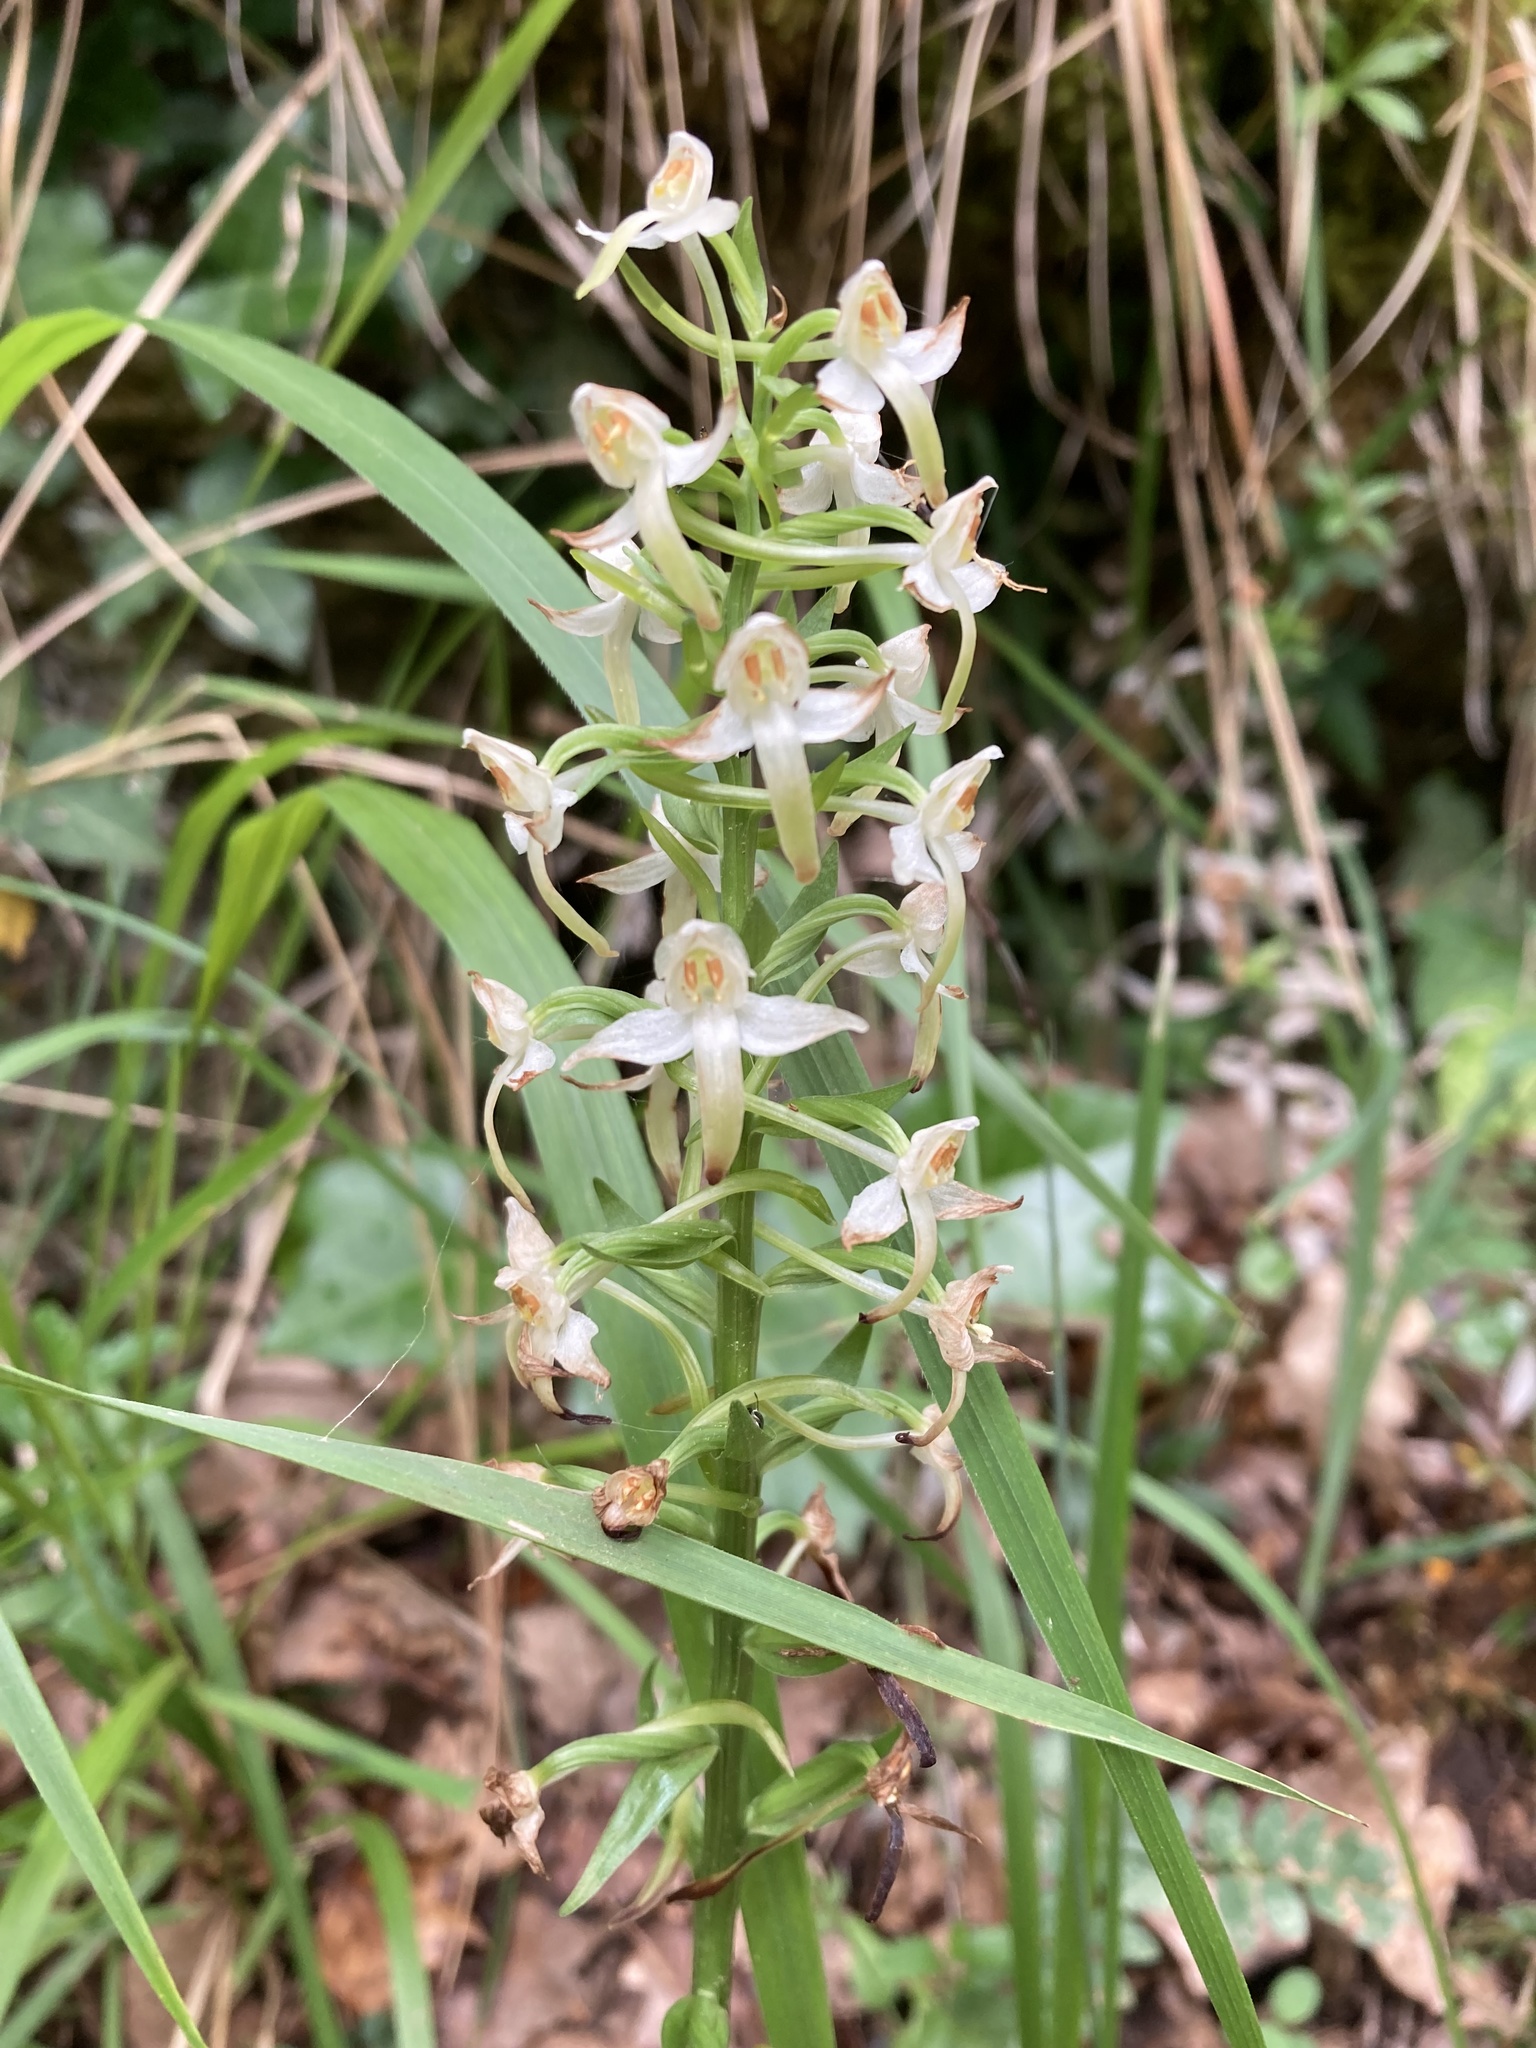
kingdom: Plantae
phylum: Tracheophyta
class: Liliopsida
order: Asparagales
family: Orchidaceae
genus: Platanthera
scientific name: Platanthera bifolia
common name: Lesser butterfly-orchid
